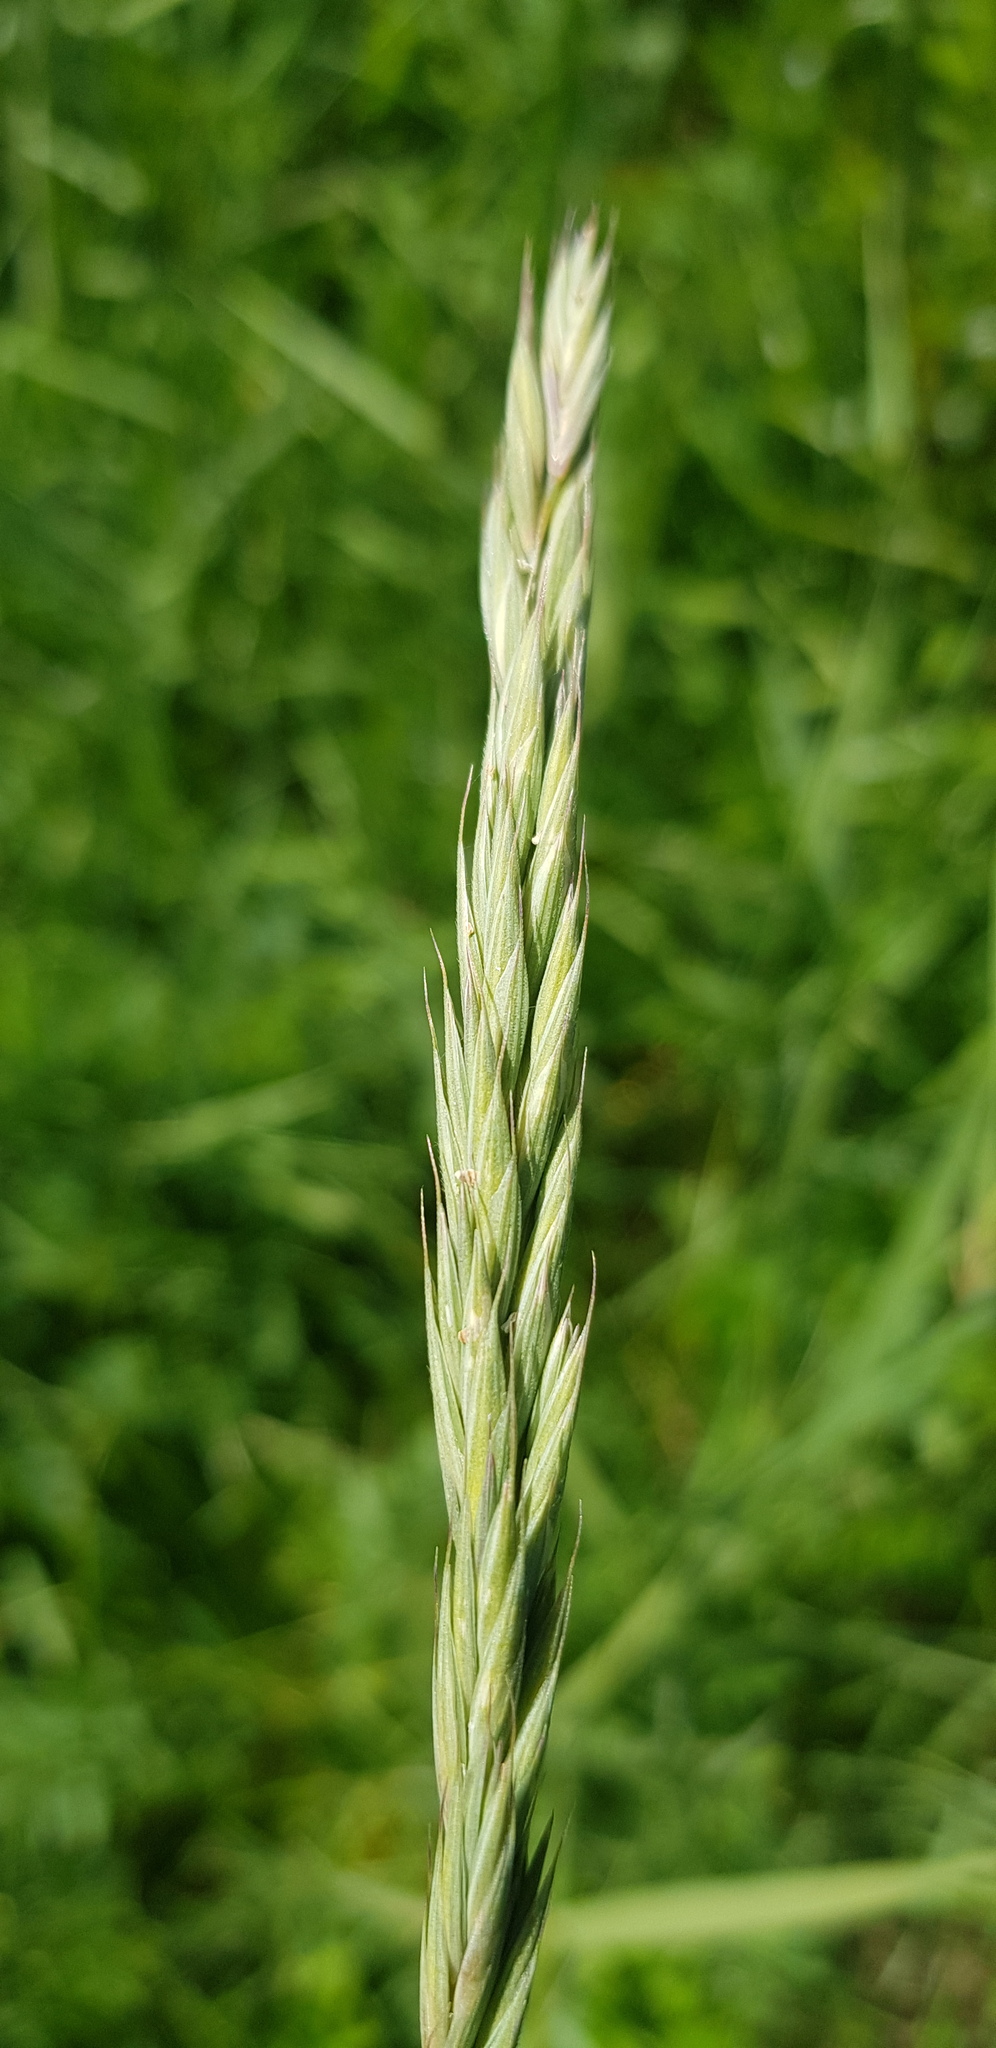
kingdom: Plantae
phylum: Tracheophyta
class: Liliopsida
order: Poales
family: Poaceae
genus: Elymus
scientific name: Elymus repens
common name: Quackgrass
